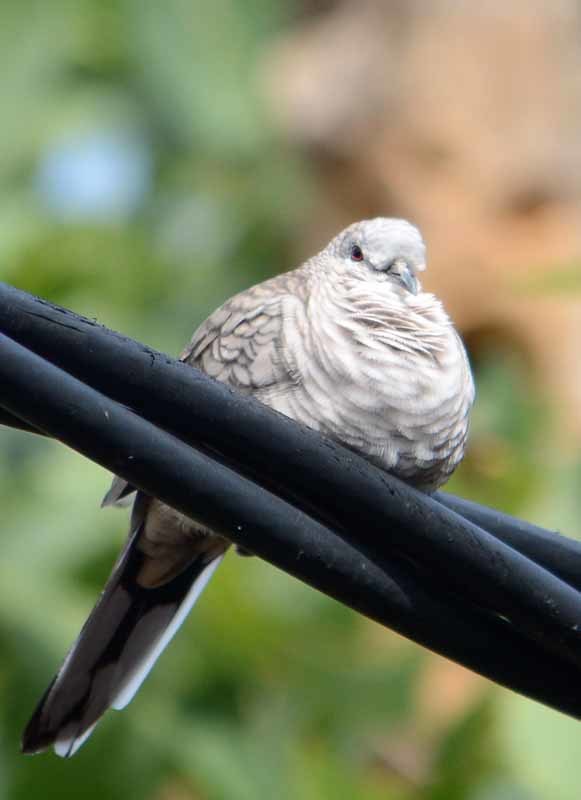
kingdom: Animalia
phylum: Chordata
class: Aves
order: Columbiformes
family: Columbidae
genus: Columbina
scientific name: Columbina inca
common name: Inca dove
